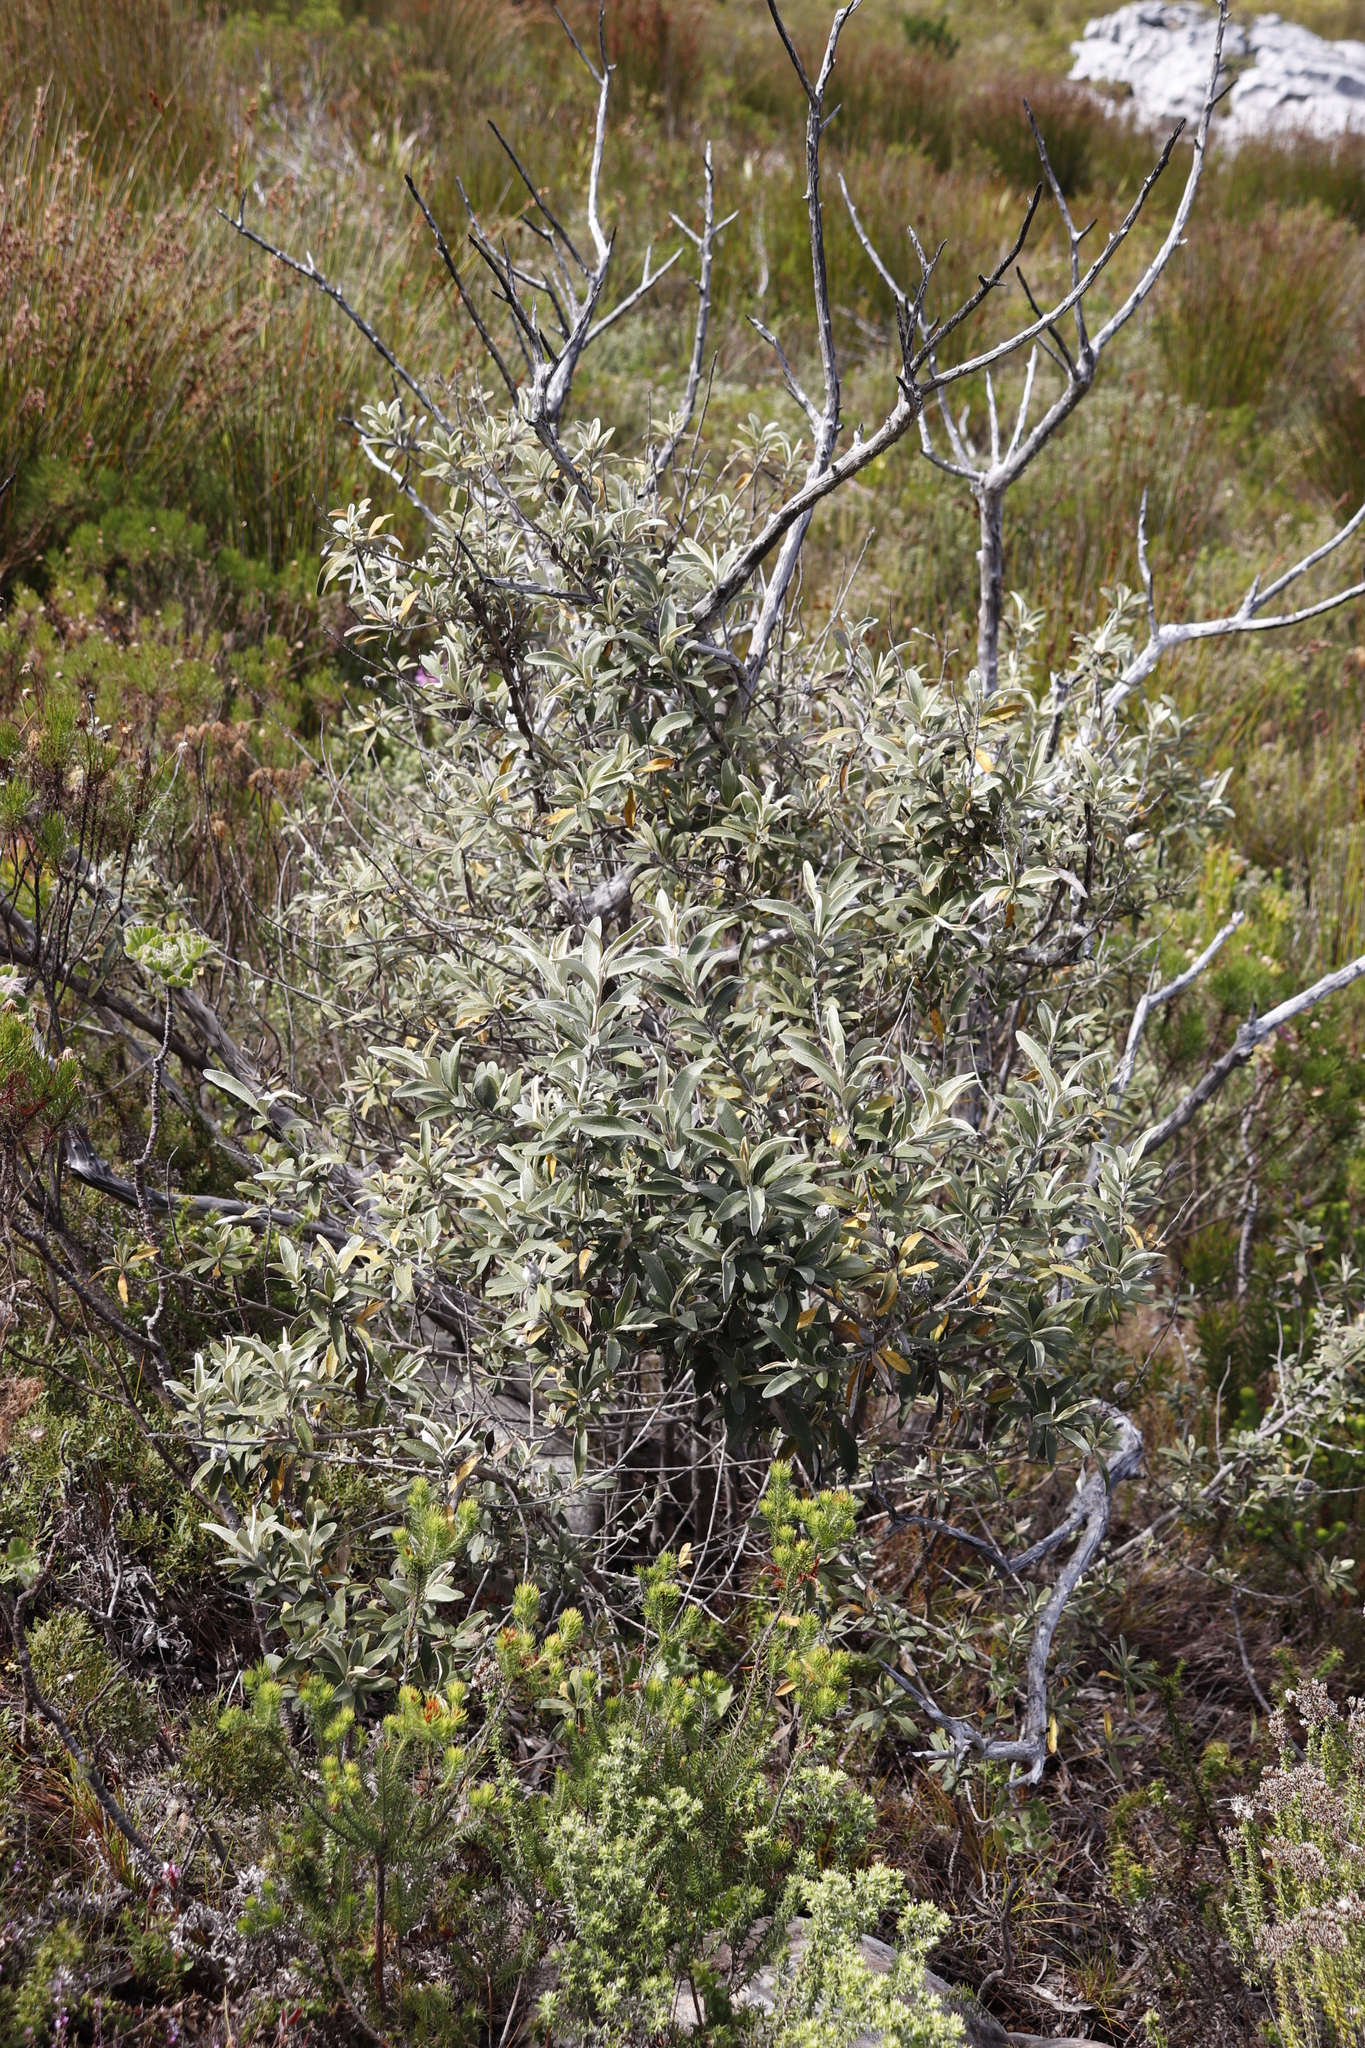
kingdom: Plantae
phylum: Tracheophyta
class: Magnoliopsida
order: Asterales
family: Asteraceae
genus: Tarchonanthus
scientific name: Tarchonanthus littoralis
